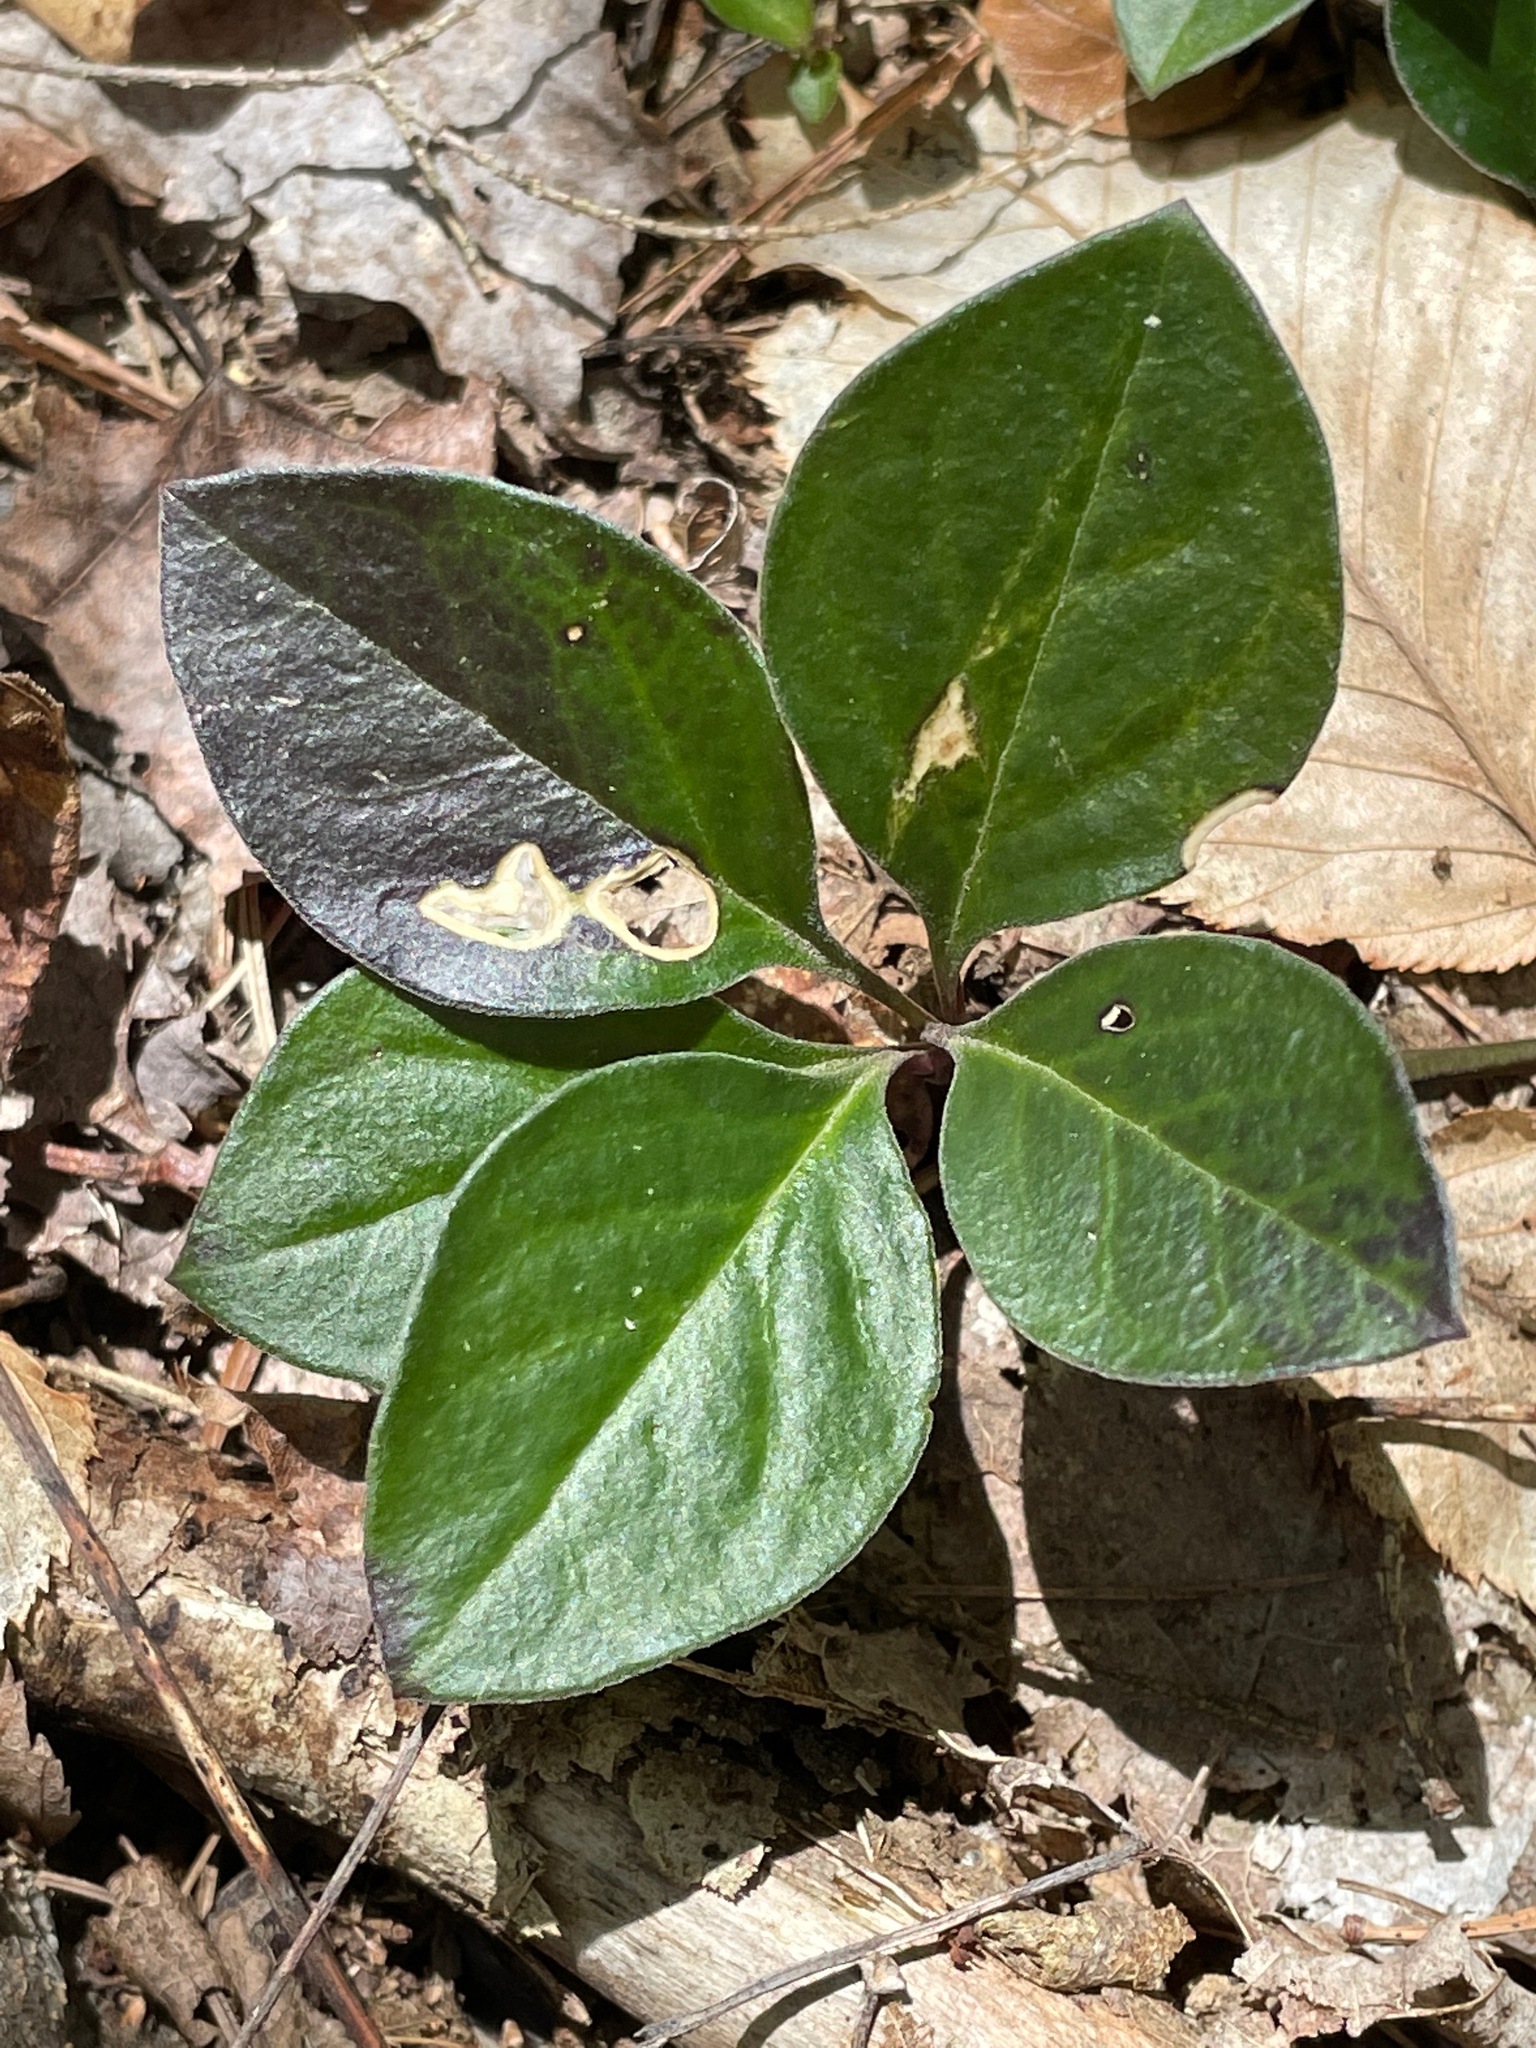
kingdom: Plantae
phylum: Tracheophyta
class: Magnoliopsida
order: Fabales
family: Polygalaceae
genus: Polygaloides
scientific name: Polygaloides paucifolia
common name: Bird-on-the-wing
